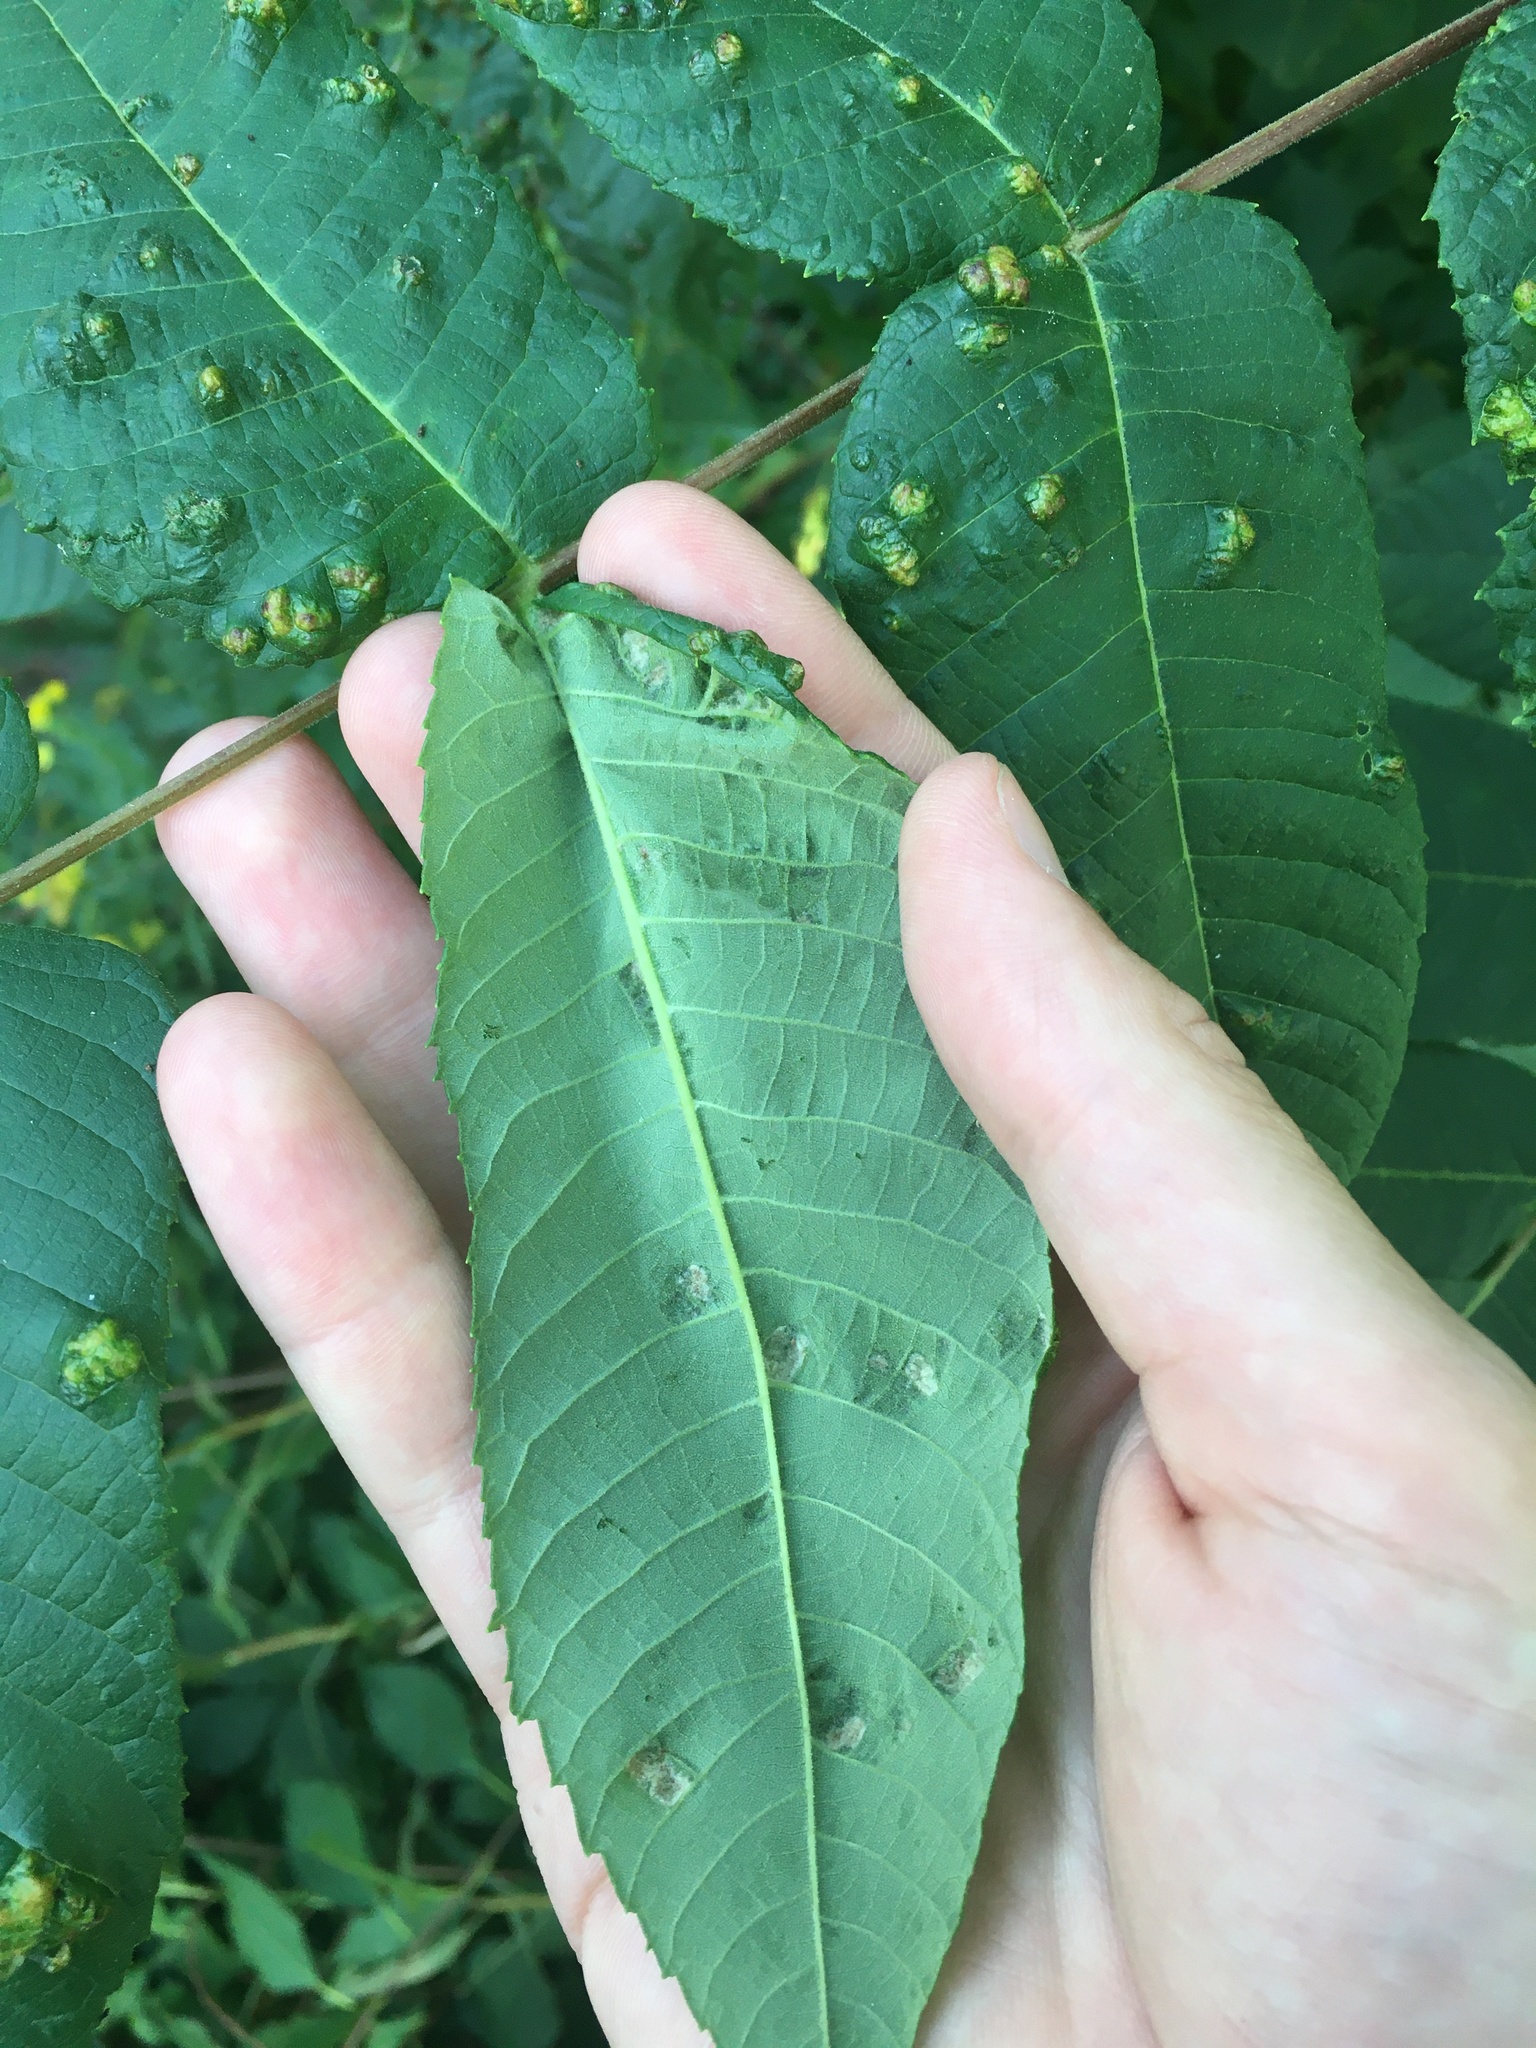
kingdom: Animalia
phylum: Arthropoda
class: Arachnida
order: Trombidiformes
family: Eriophyidae
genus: Aceria
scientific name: Aceria
